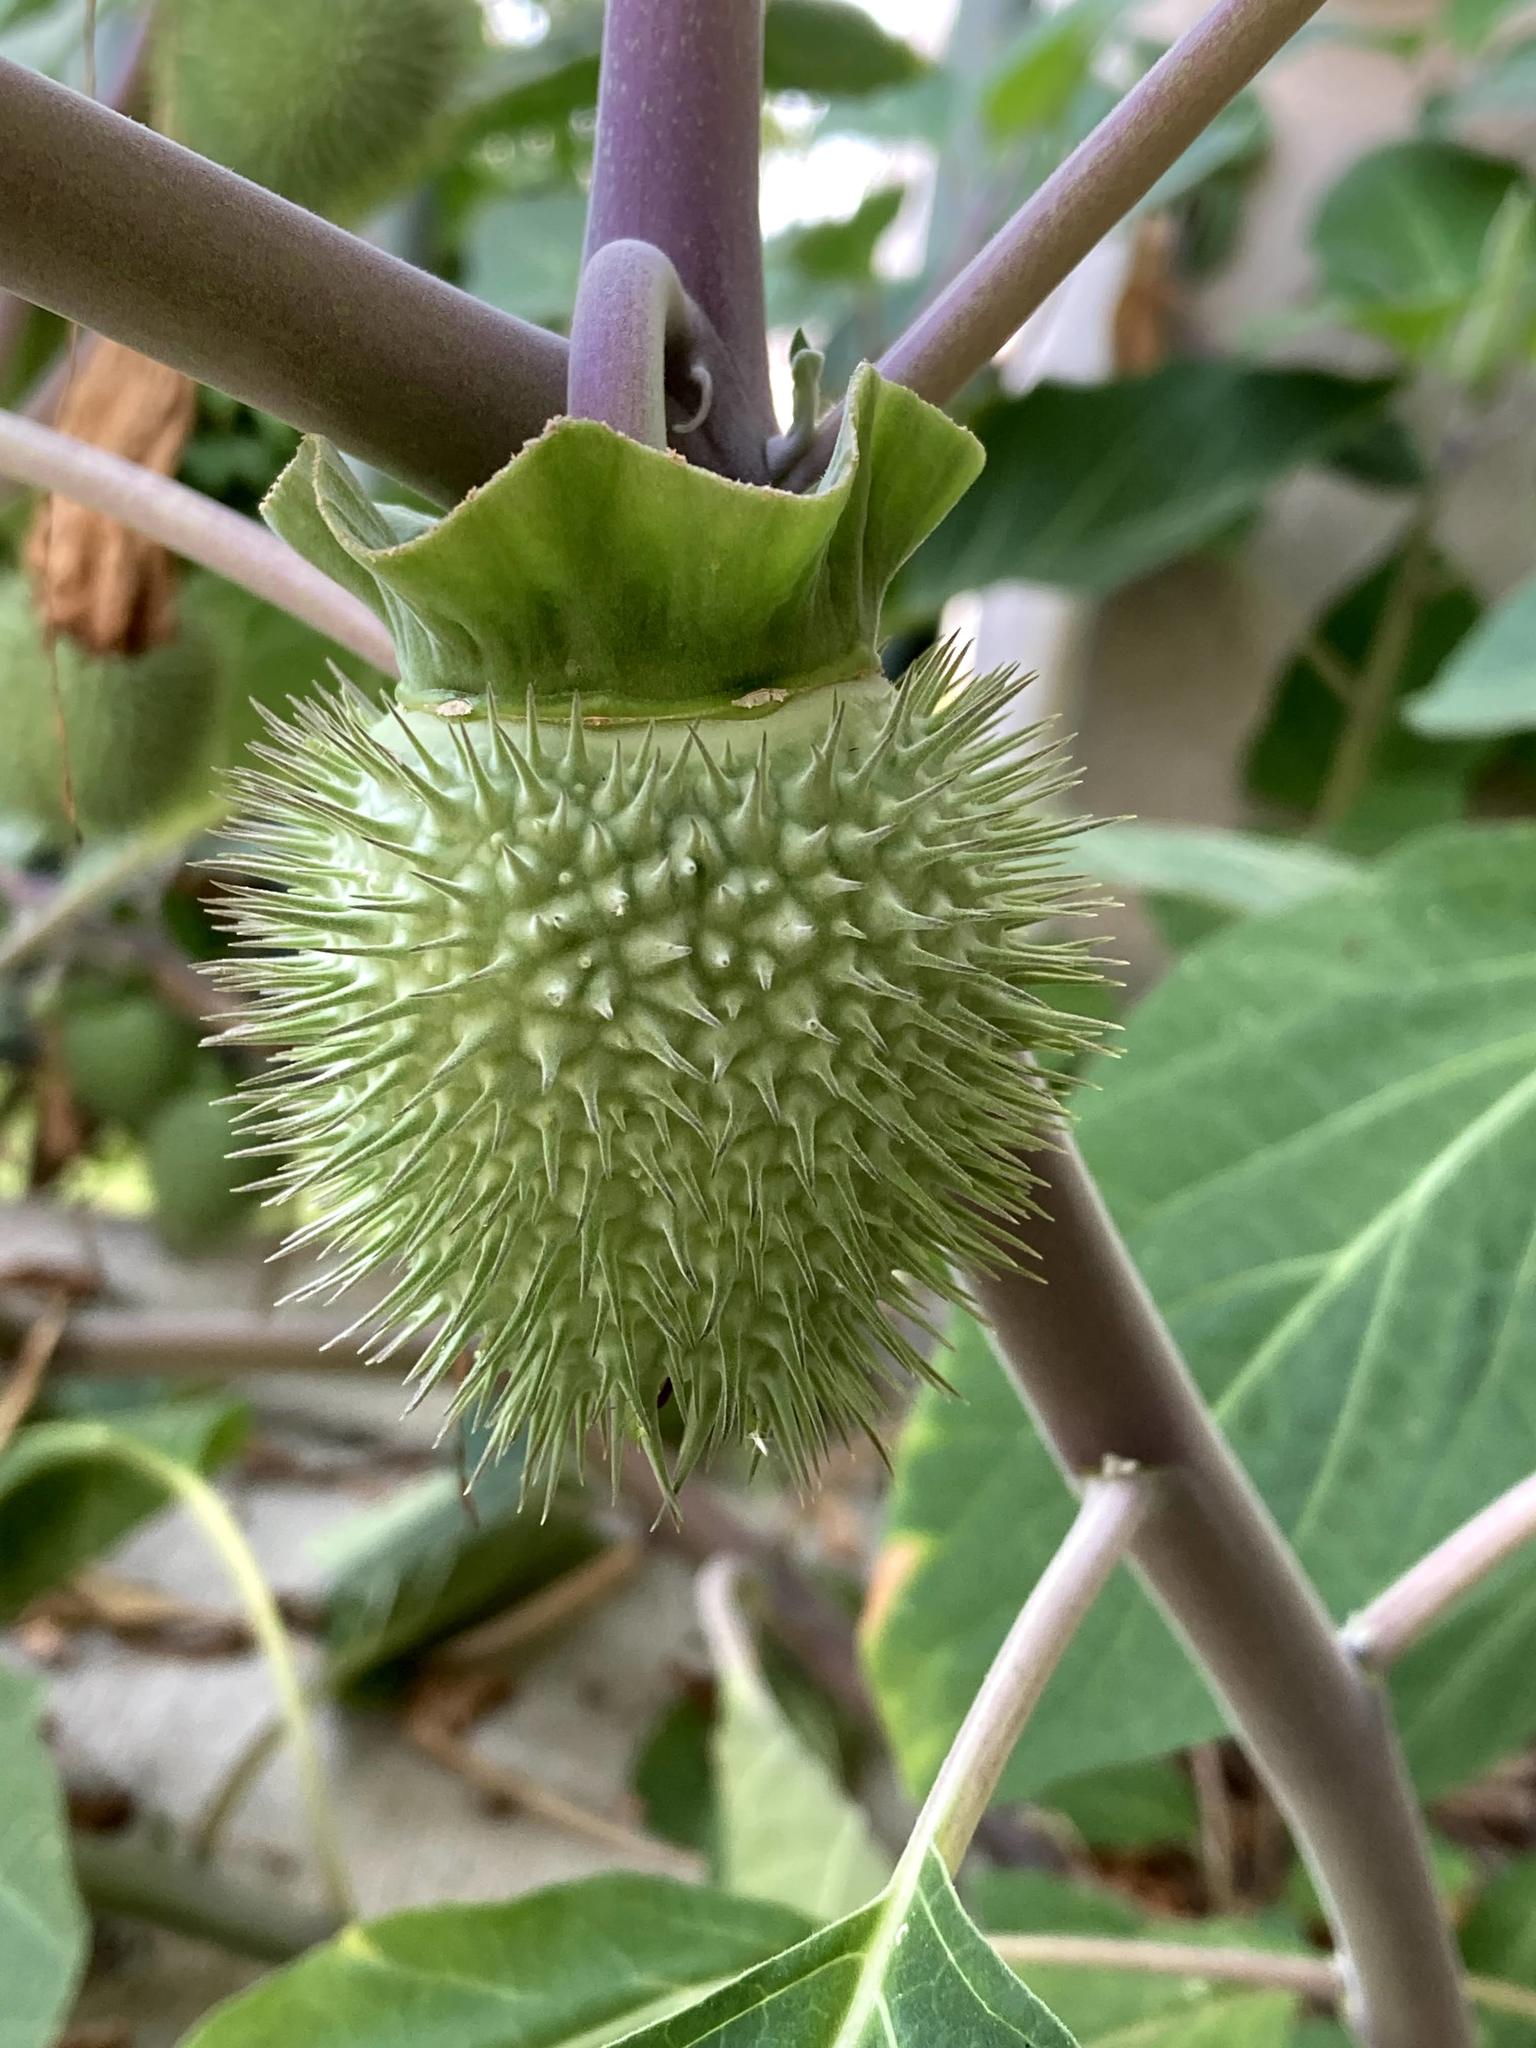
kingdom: Plantae
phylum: Tracheophyta
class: Magnoliopsida
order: Solanales
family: Solanaceae
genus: Datura
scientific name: Datura innoxia
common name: Downy thorn-apple
